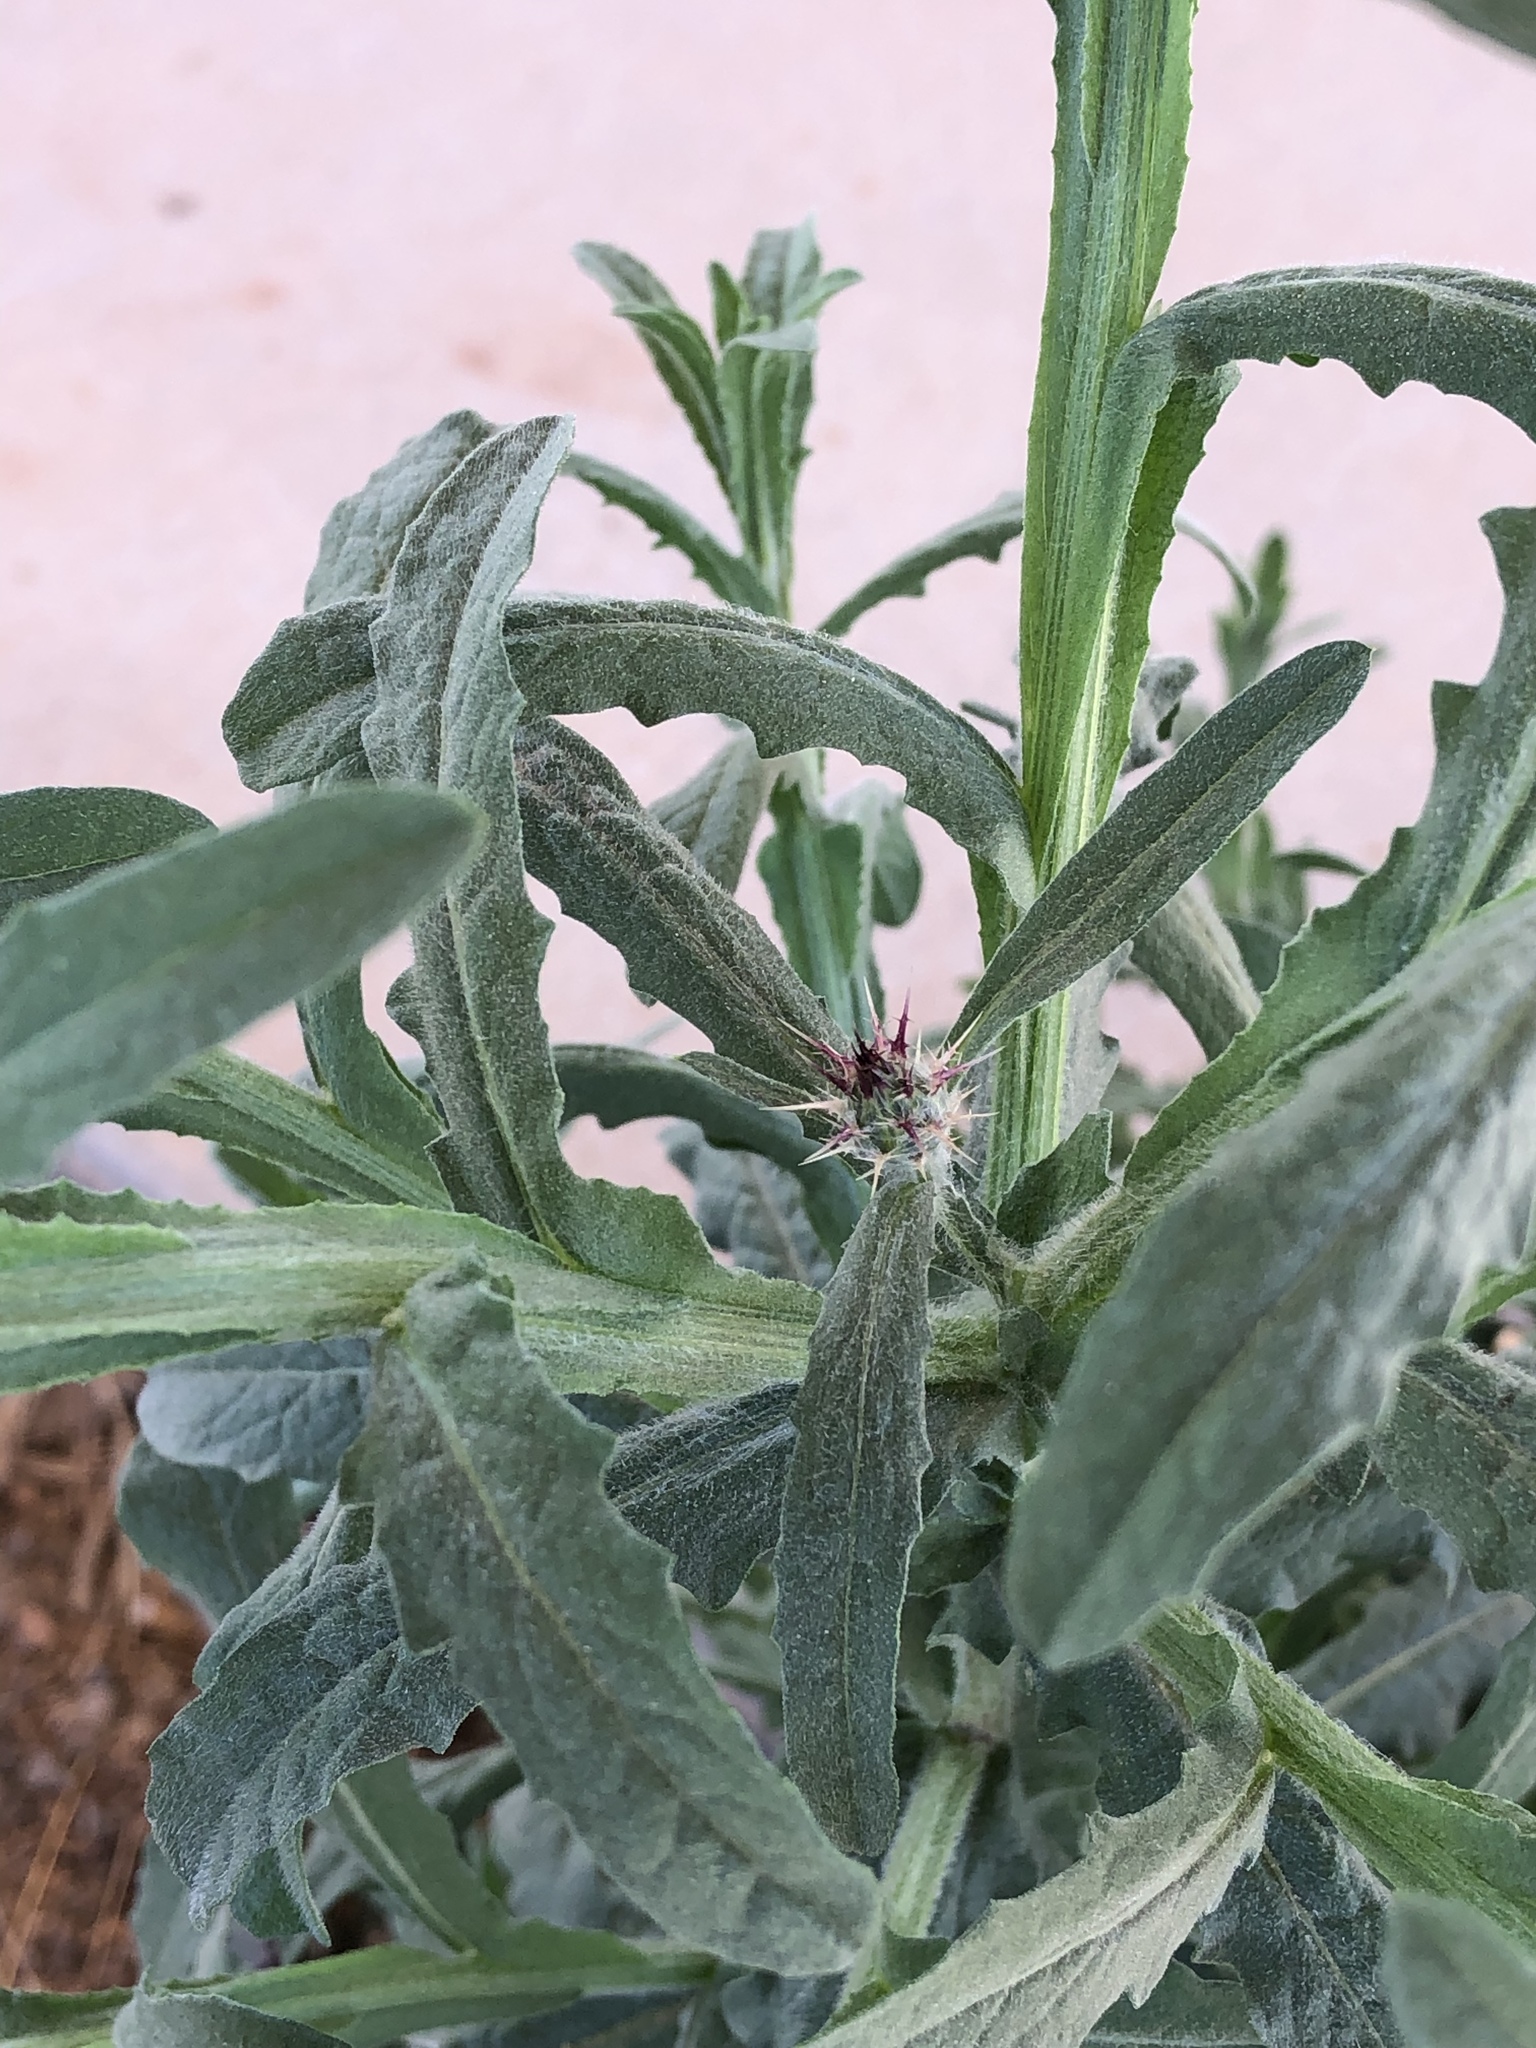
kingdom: Plantae
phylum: Tracheophyta
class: Magnoliopsida
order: Asterales
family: Asteraceae
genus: Centaurea
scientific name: Centaurea melitensis
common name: Maltese star-thistle
